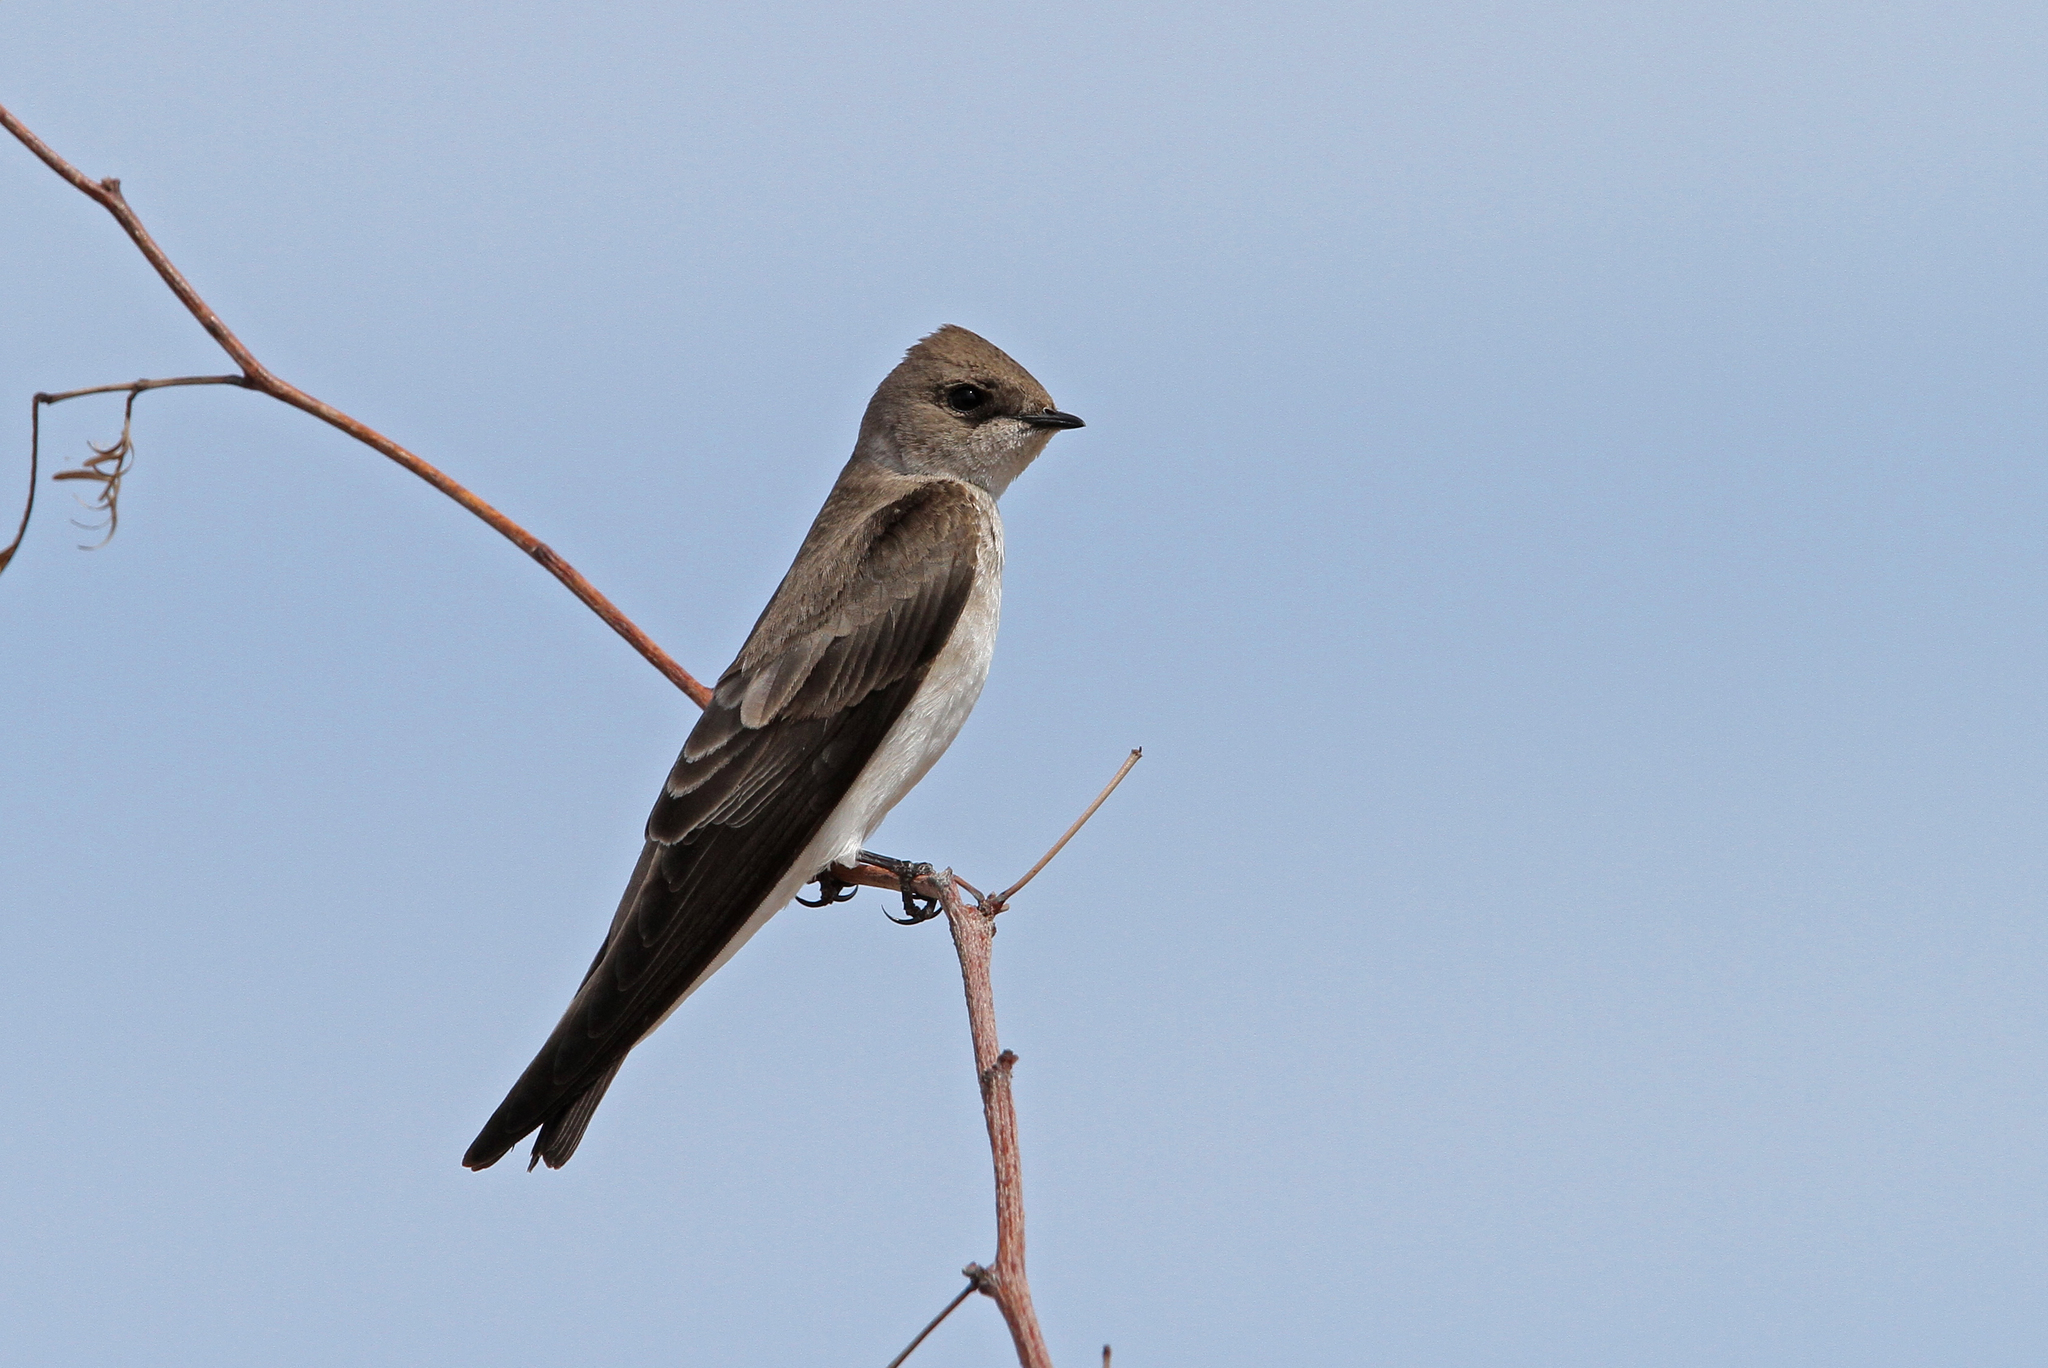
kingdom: Animalia
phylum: Chordata
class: Aves
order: Passeriformes
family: Hirundinidae
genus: Stelgidopteryx
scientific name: Stelgidopteryx serripennis
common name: Northern rough-winged swallow
